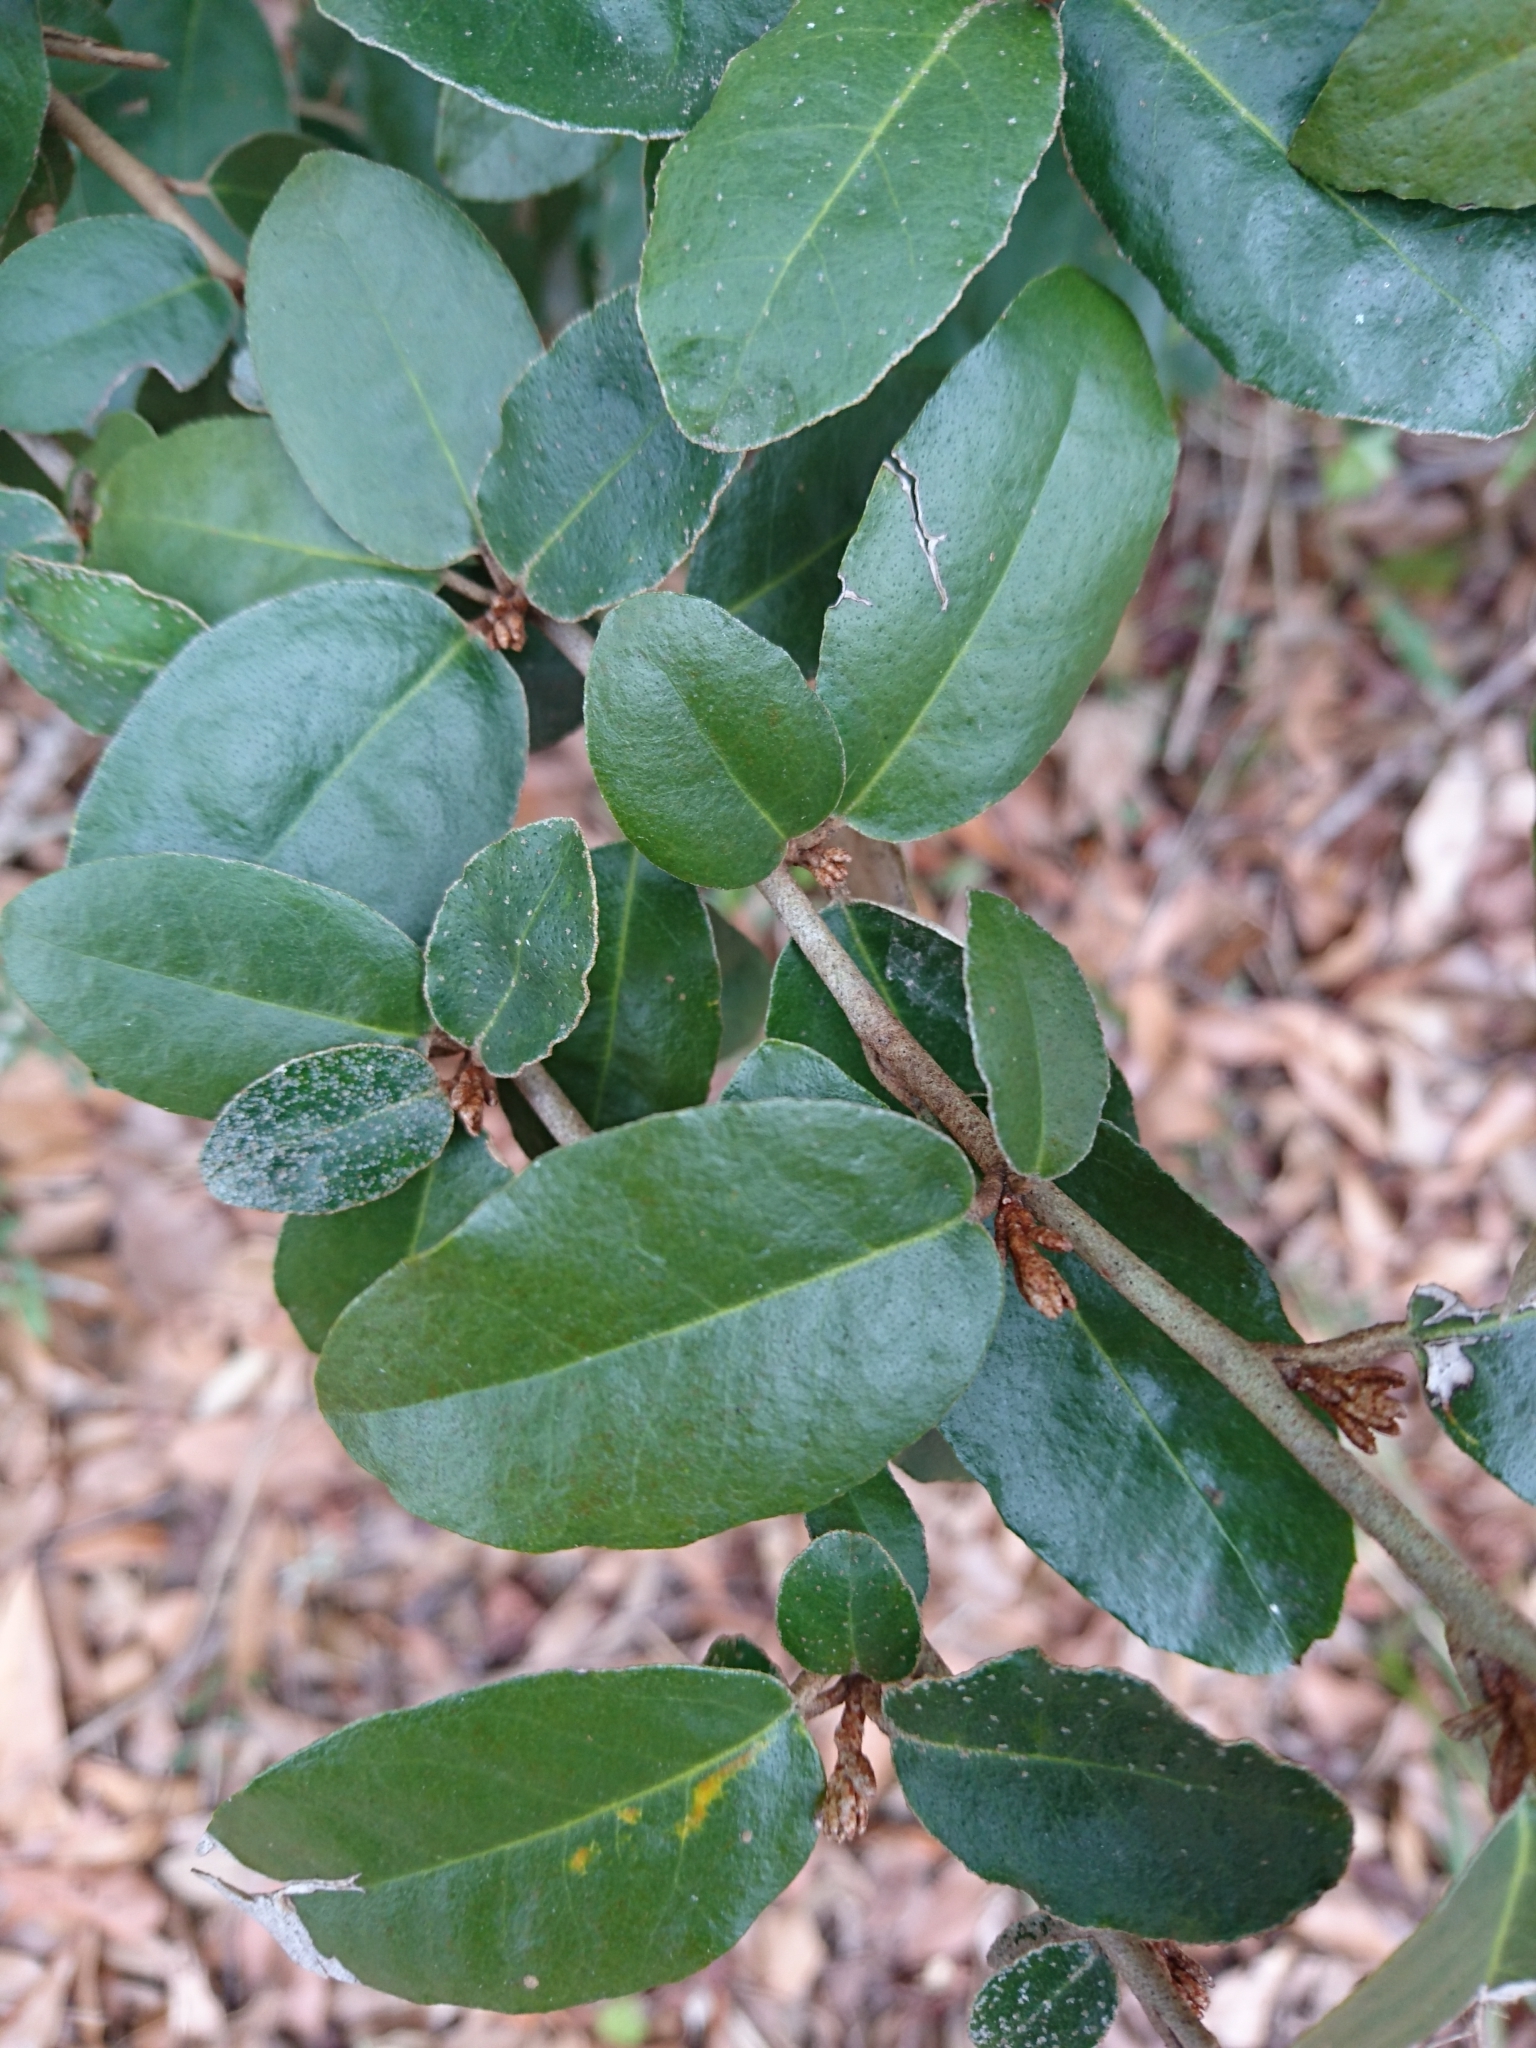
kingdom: Plantae
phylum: Tracheophyta
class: Magnoliopsida
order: Rosales
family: Elaeagnaceae
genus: Elaeagnus
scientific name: Elaeagnus pungens
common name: Spiny oleaster
